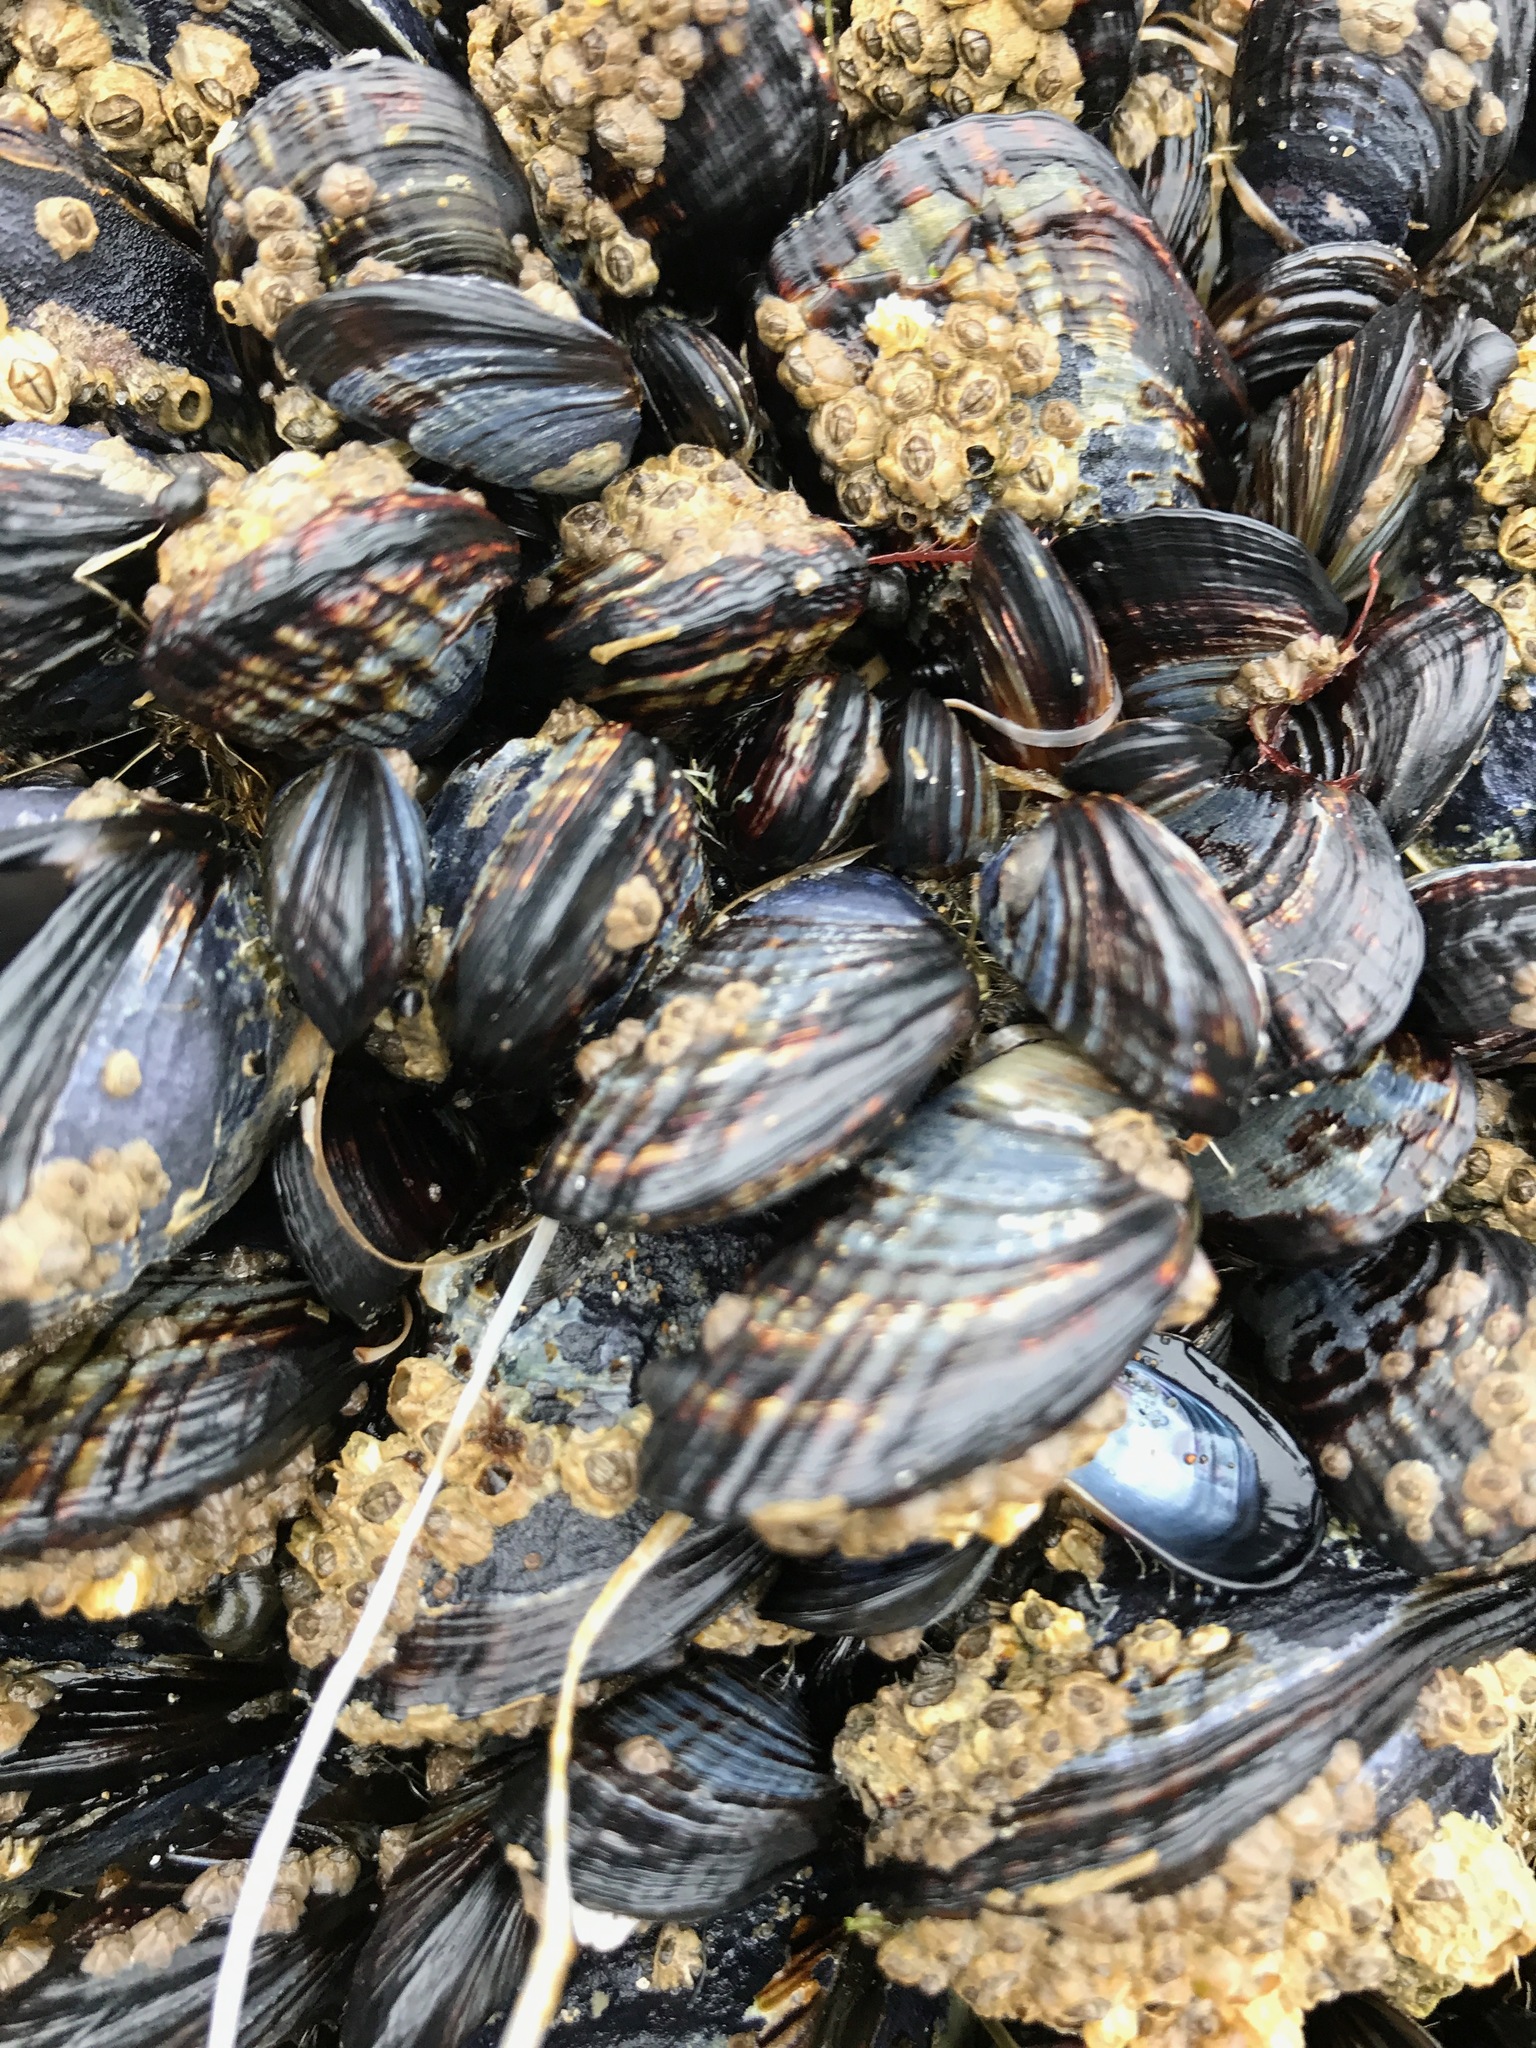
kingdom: Animalia
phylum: Mollusca
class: Bivalvia
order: Mytilida
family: Mytilidae
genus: Mytilus
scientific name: Mytilus californianus
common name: California mussel
